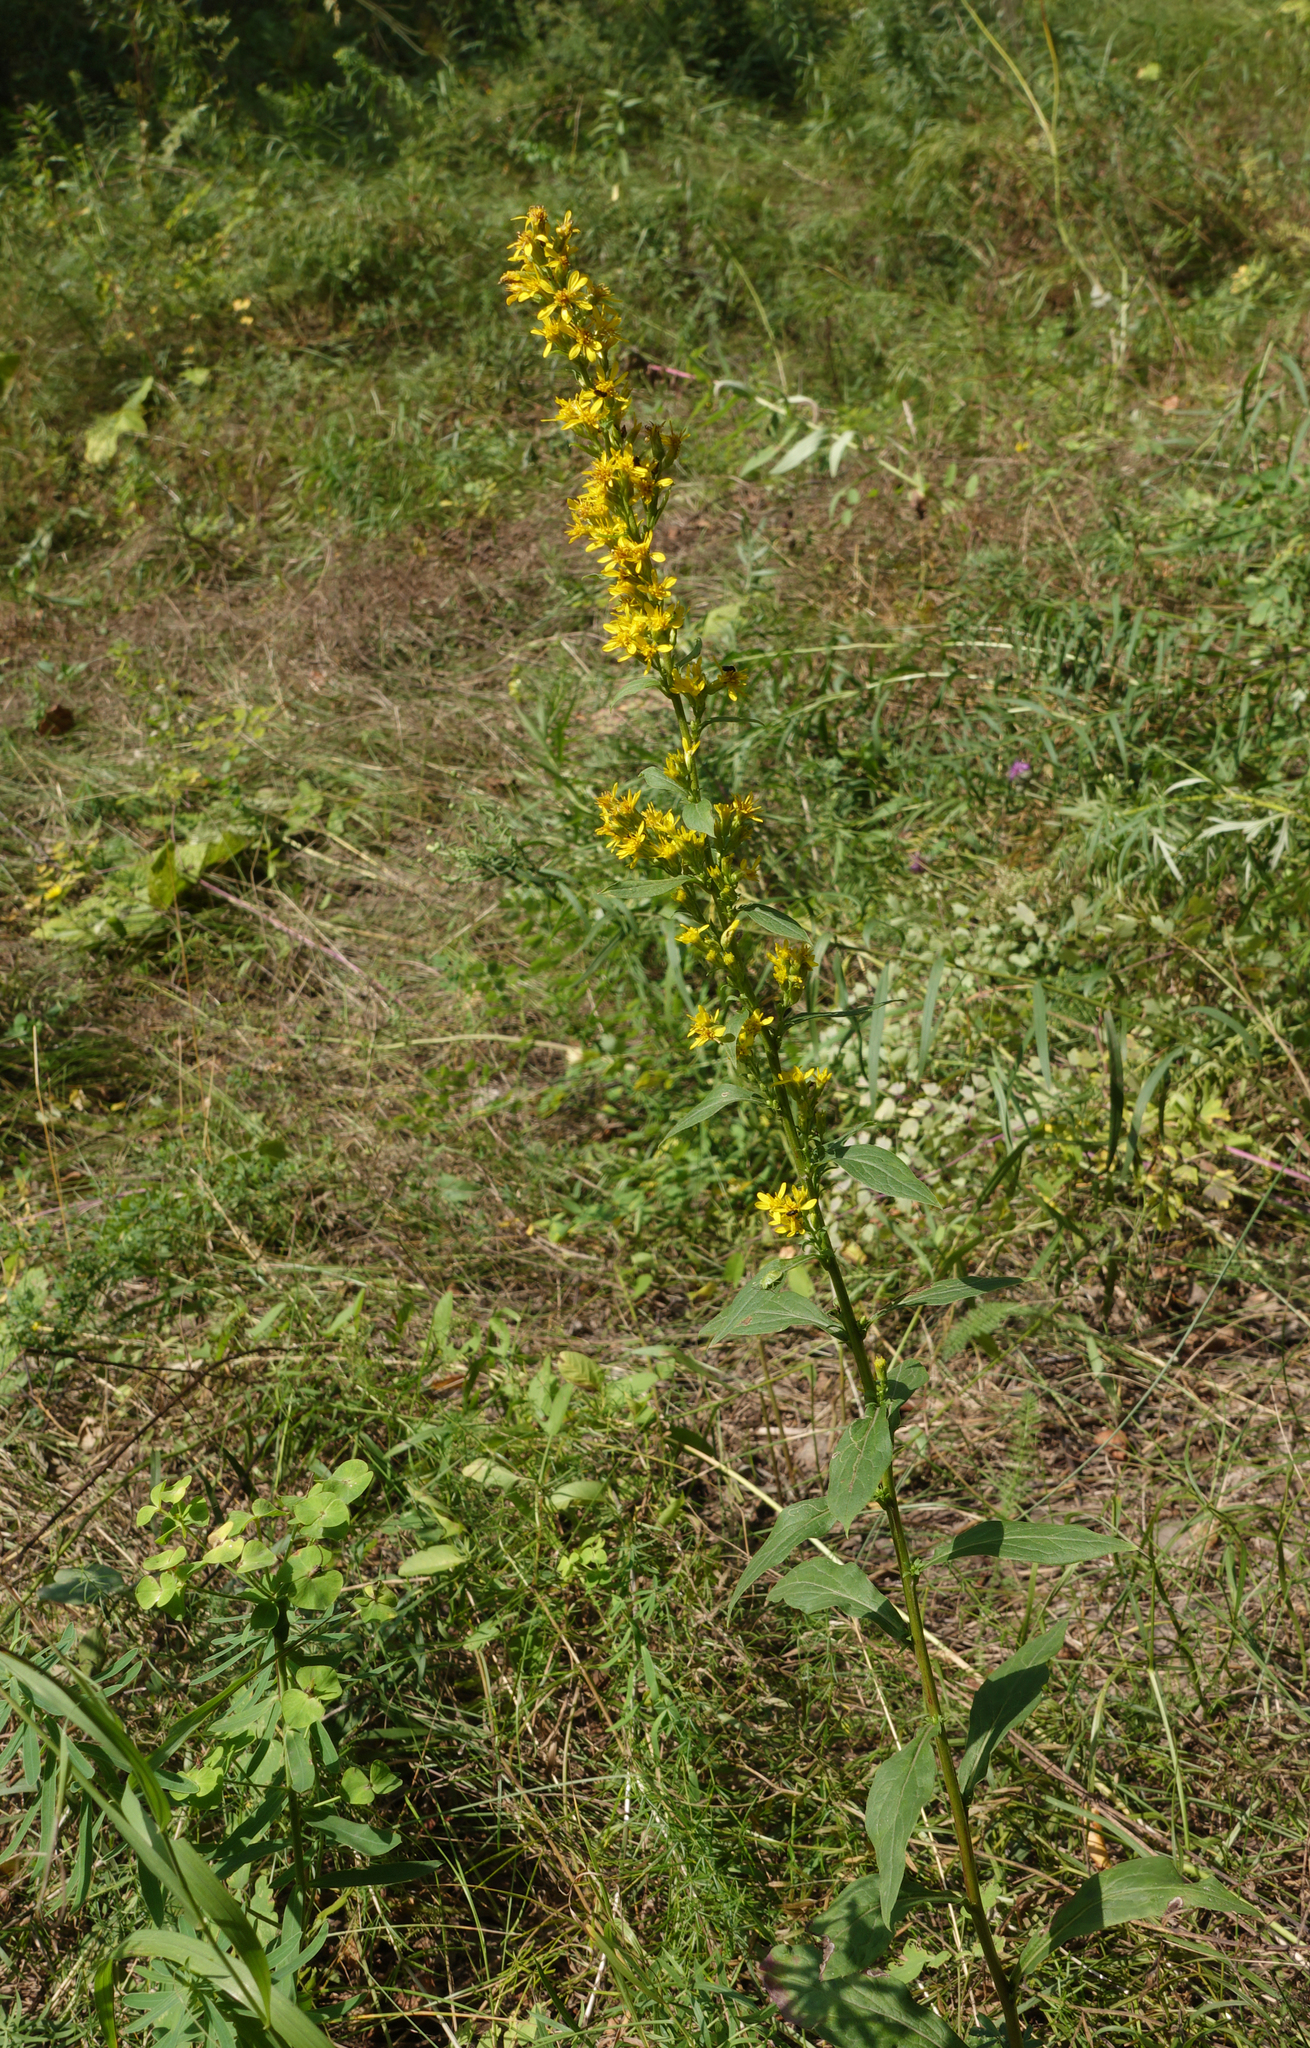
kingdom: Plantae
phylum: Tracheophyta
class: Magnoliopsida
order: Asterales
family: Asteraceae
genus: Solidago
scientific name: Solidago virgaurea
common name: Goldenrod
